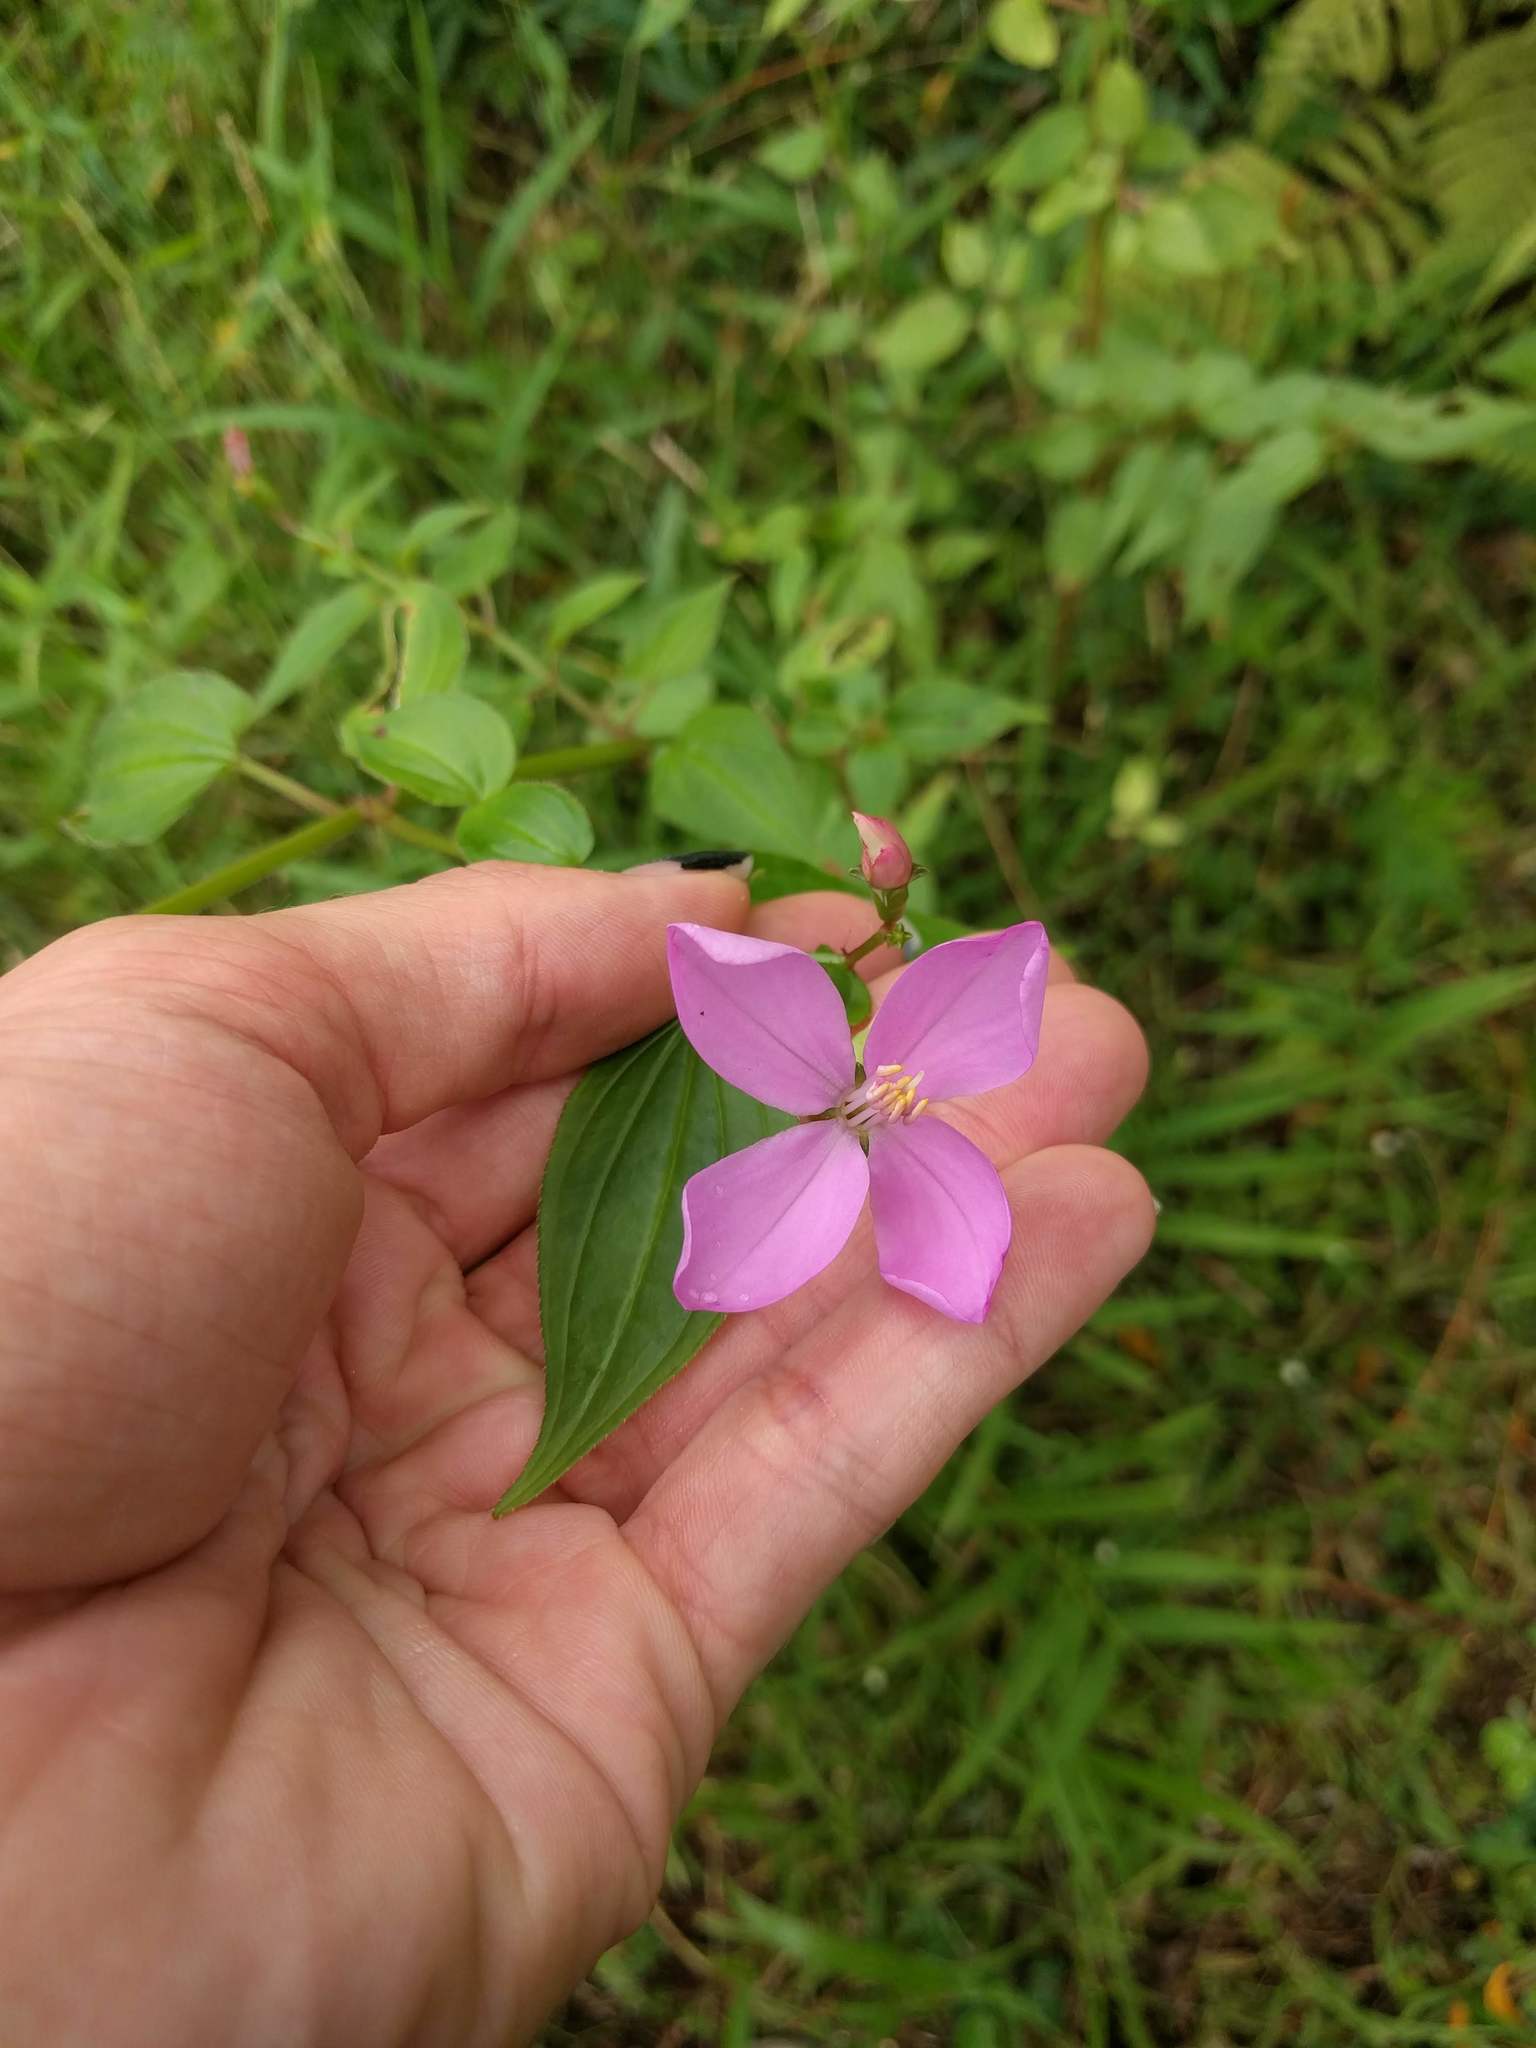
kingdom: Plantae
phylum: Tracheophyta
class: Magnoliopsida
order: Myrtales
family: Melastomataceae
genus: Arthrostemma
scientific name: Arthrostemma ciliatum
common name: Everblooming eavender
